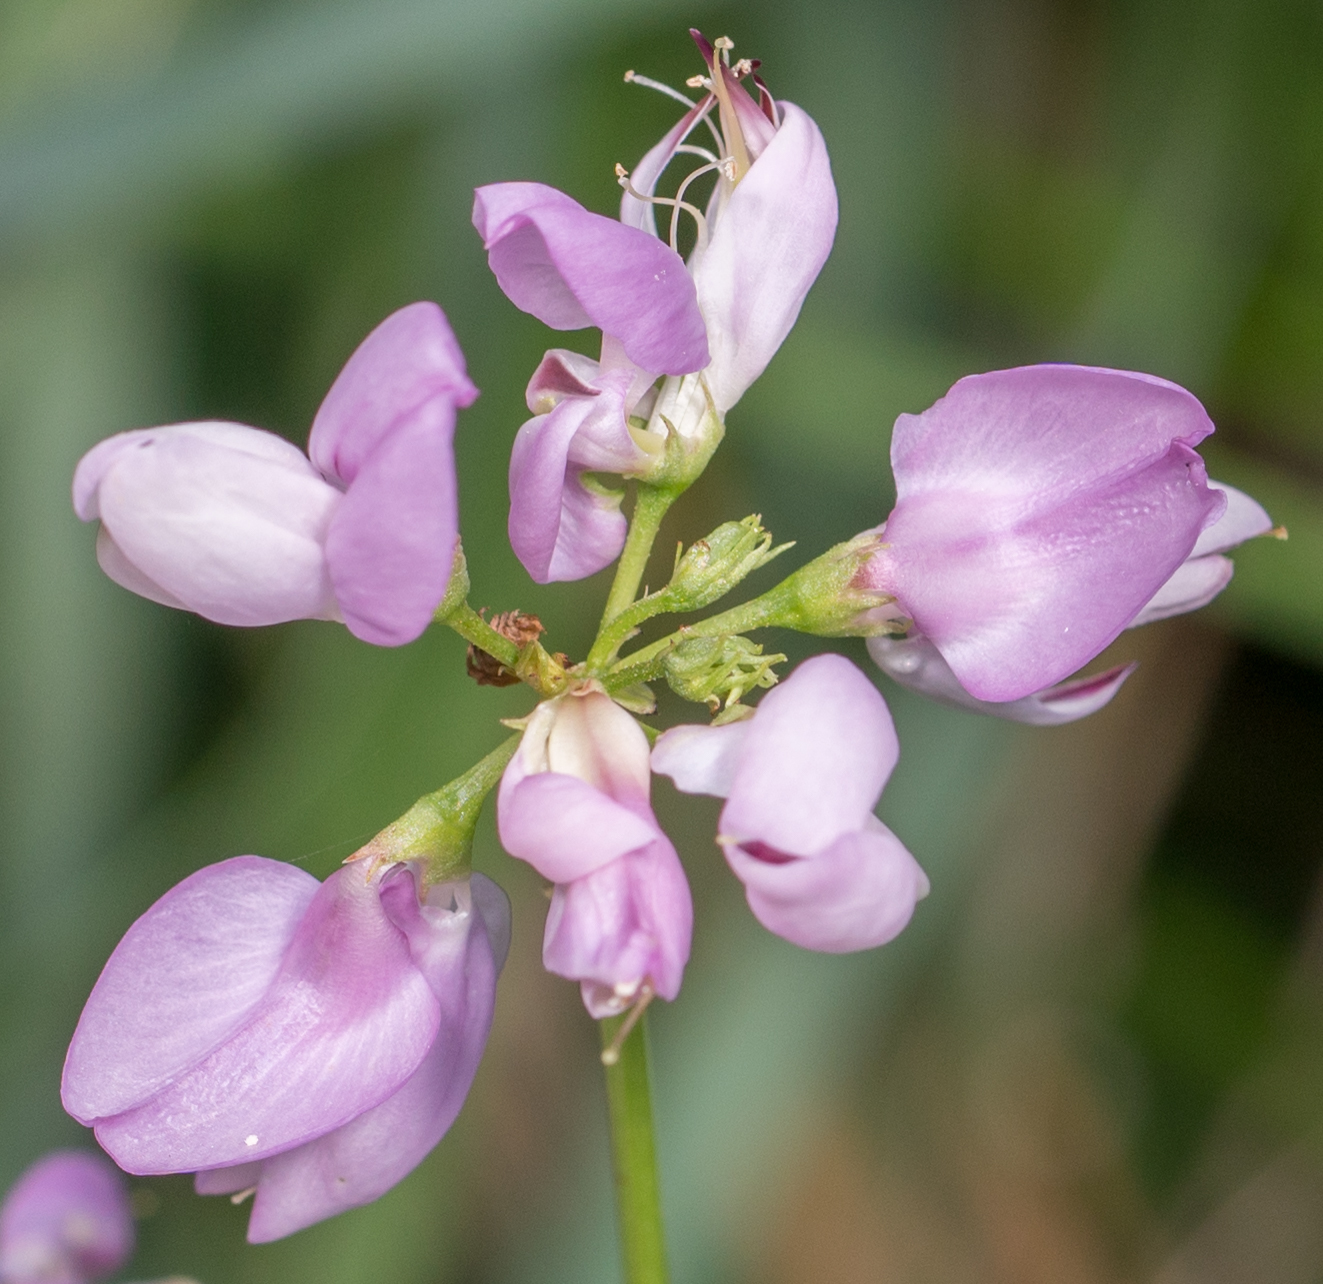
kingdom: Plantae
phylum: Tracheophyta
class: Magnoliopsida
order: Fabales
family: Fabaceae
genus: Coronilla
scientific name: Coronilla varia
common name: Crownvetch
